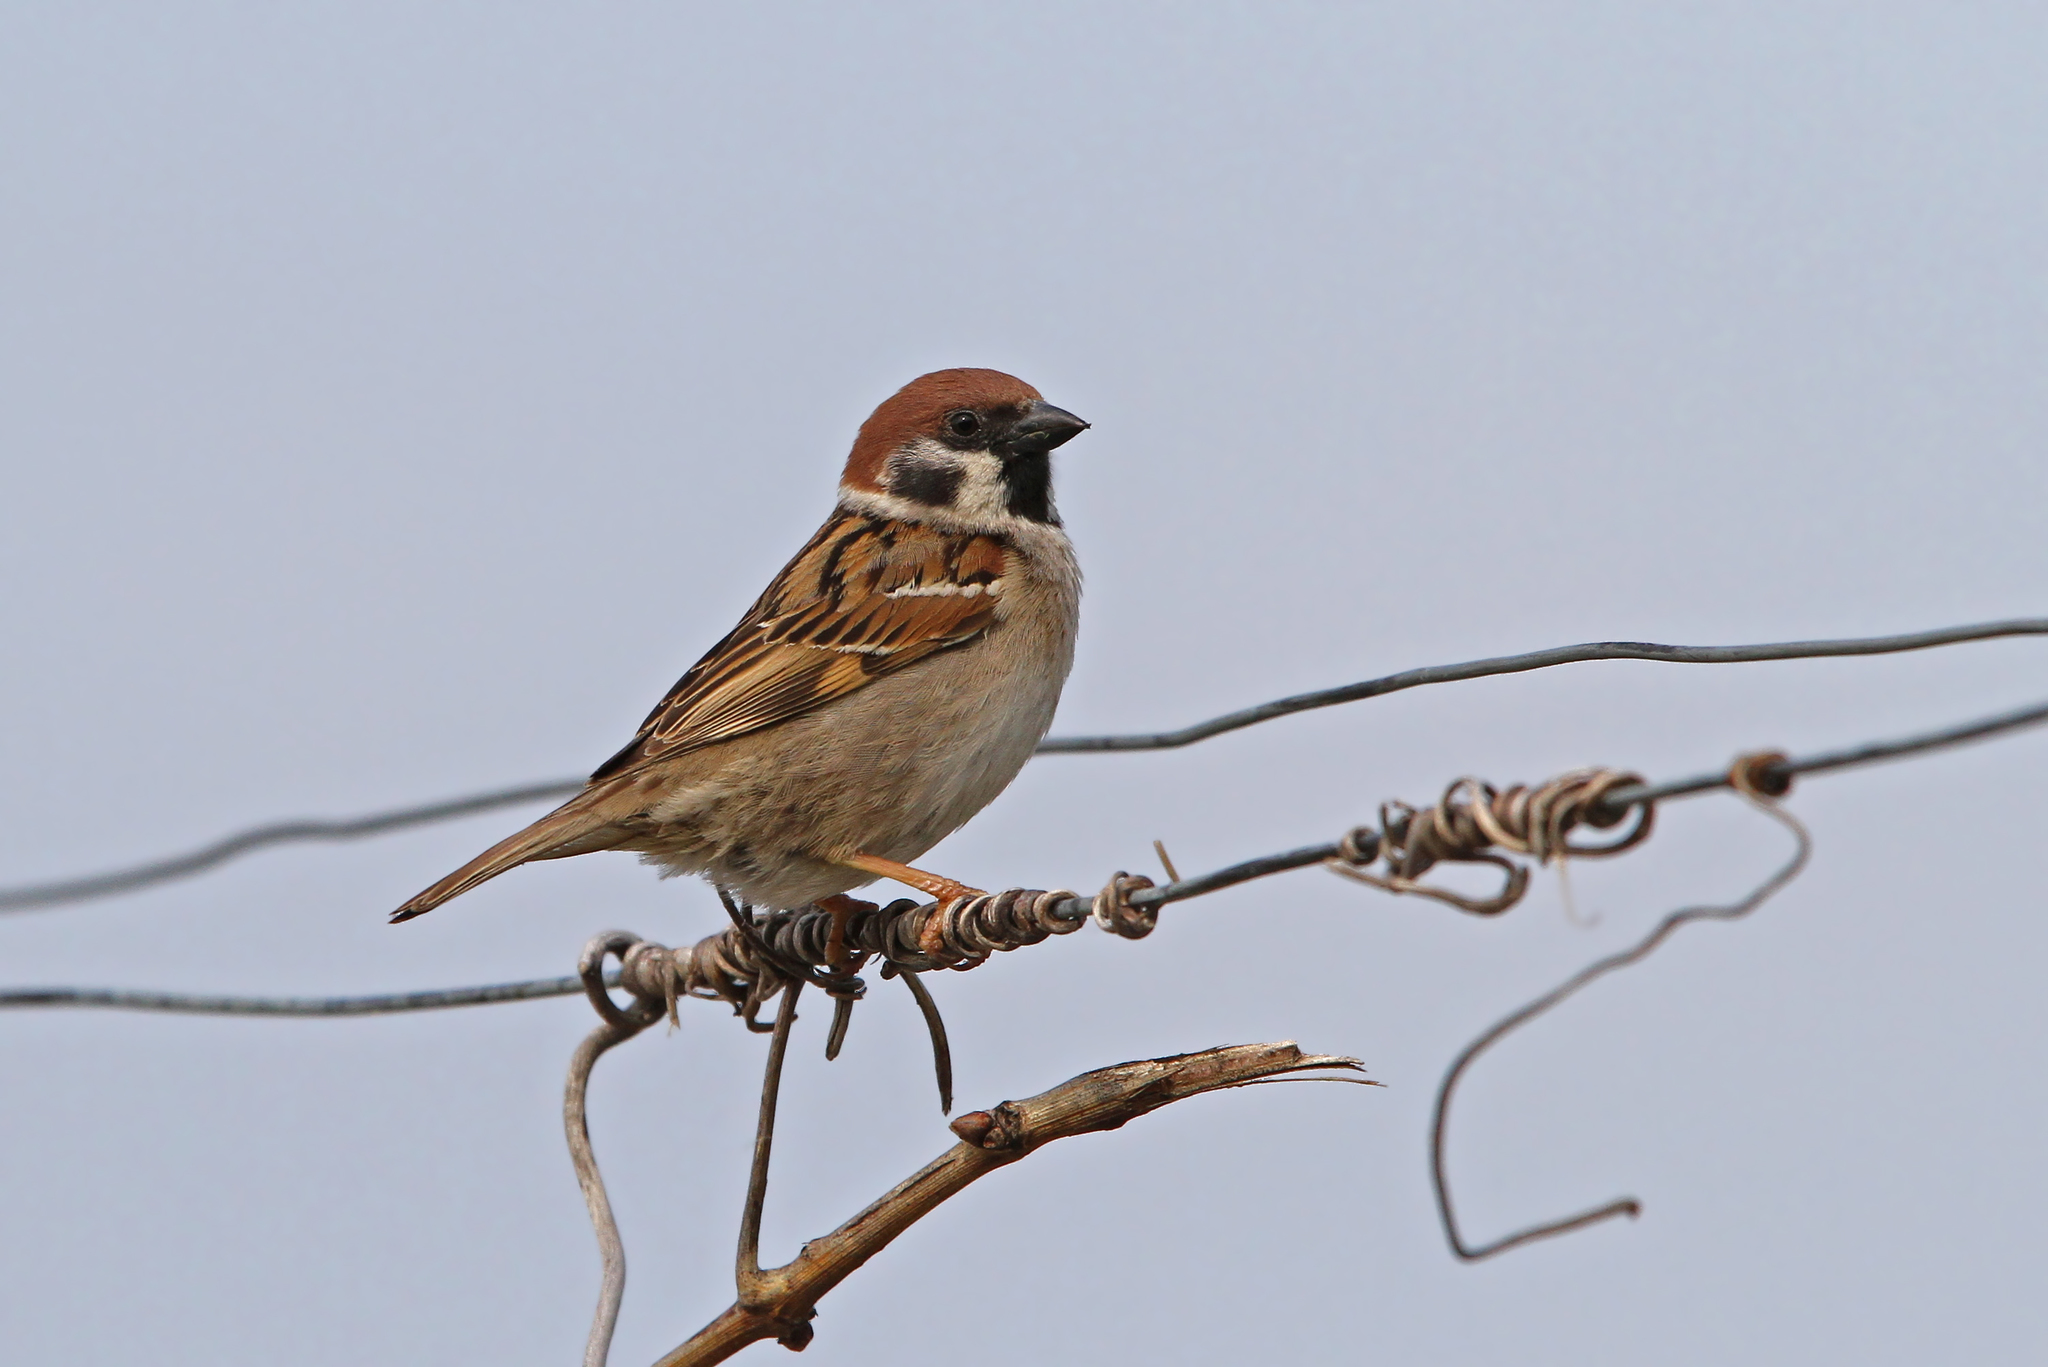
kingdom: Animalia
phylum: Chordata
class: Aves
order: Passeriformes
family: Passeridae
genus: Passer
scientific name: Passer montanus
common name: Eurasian tree sparrow
